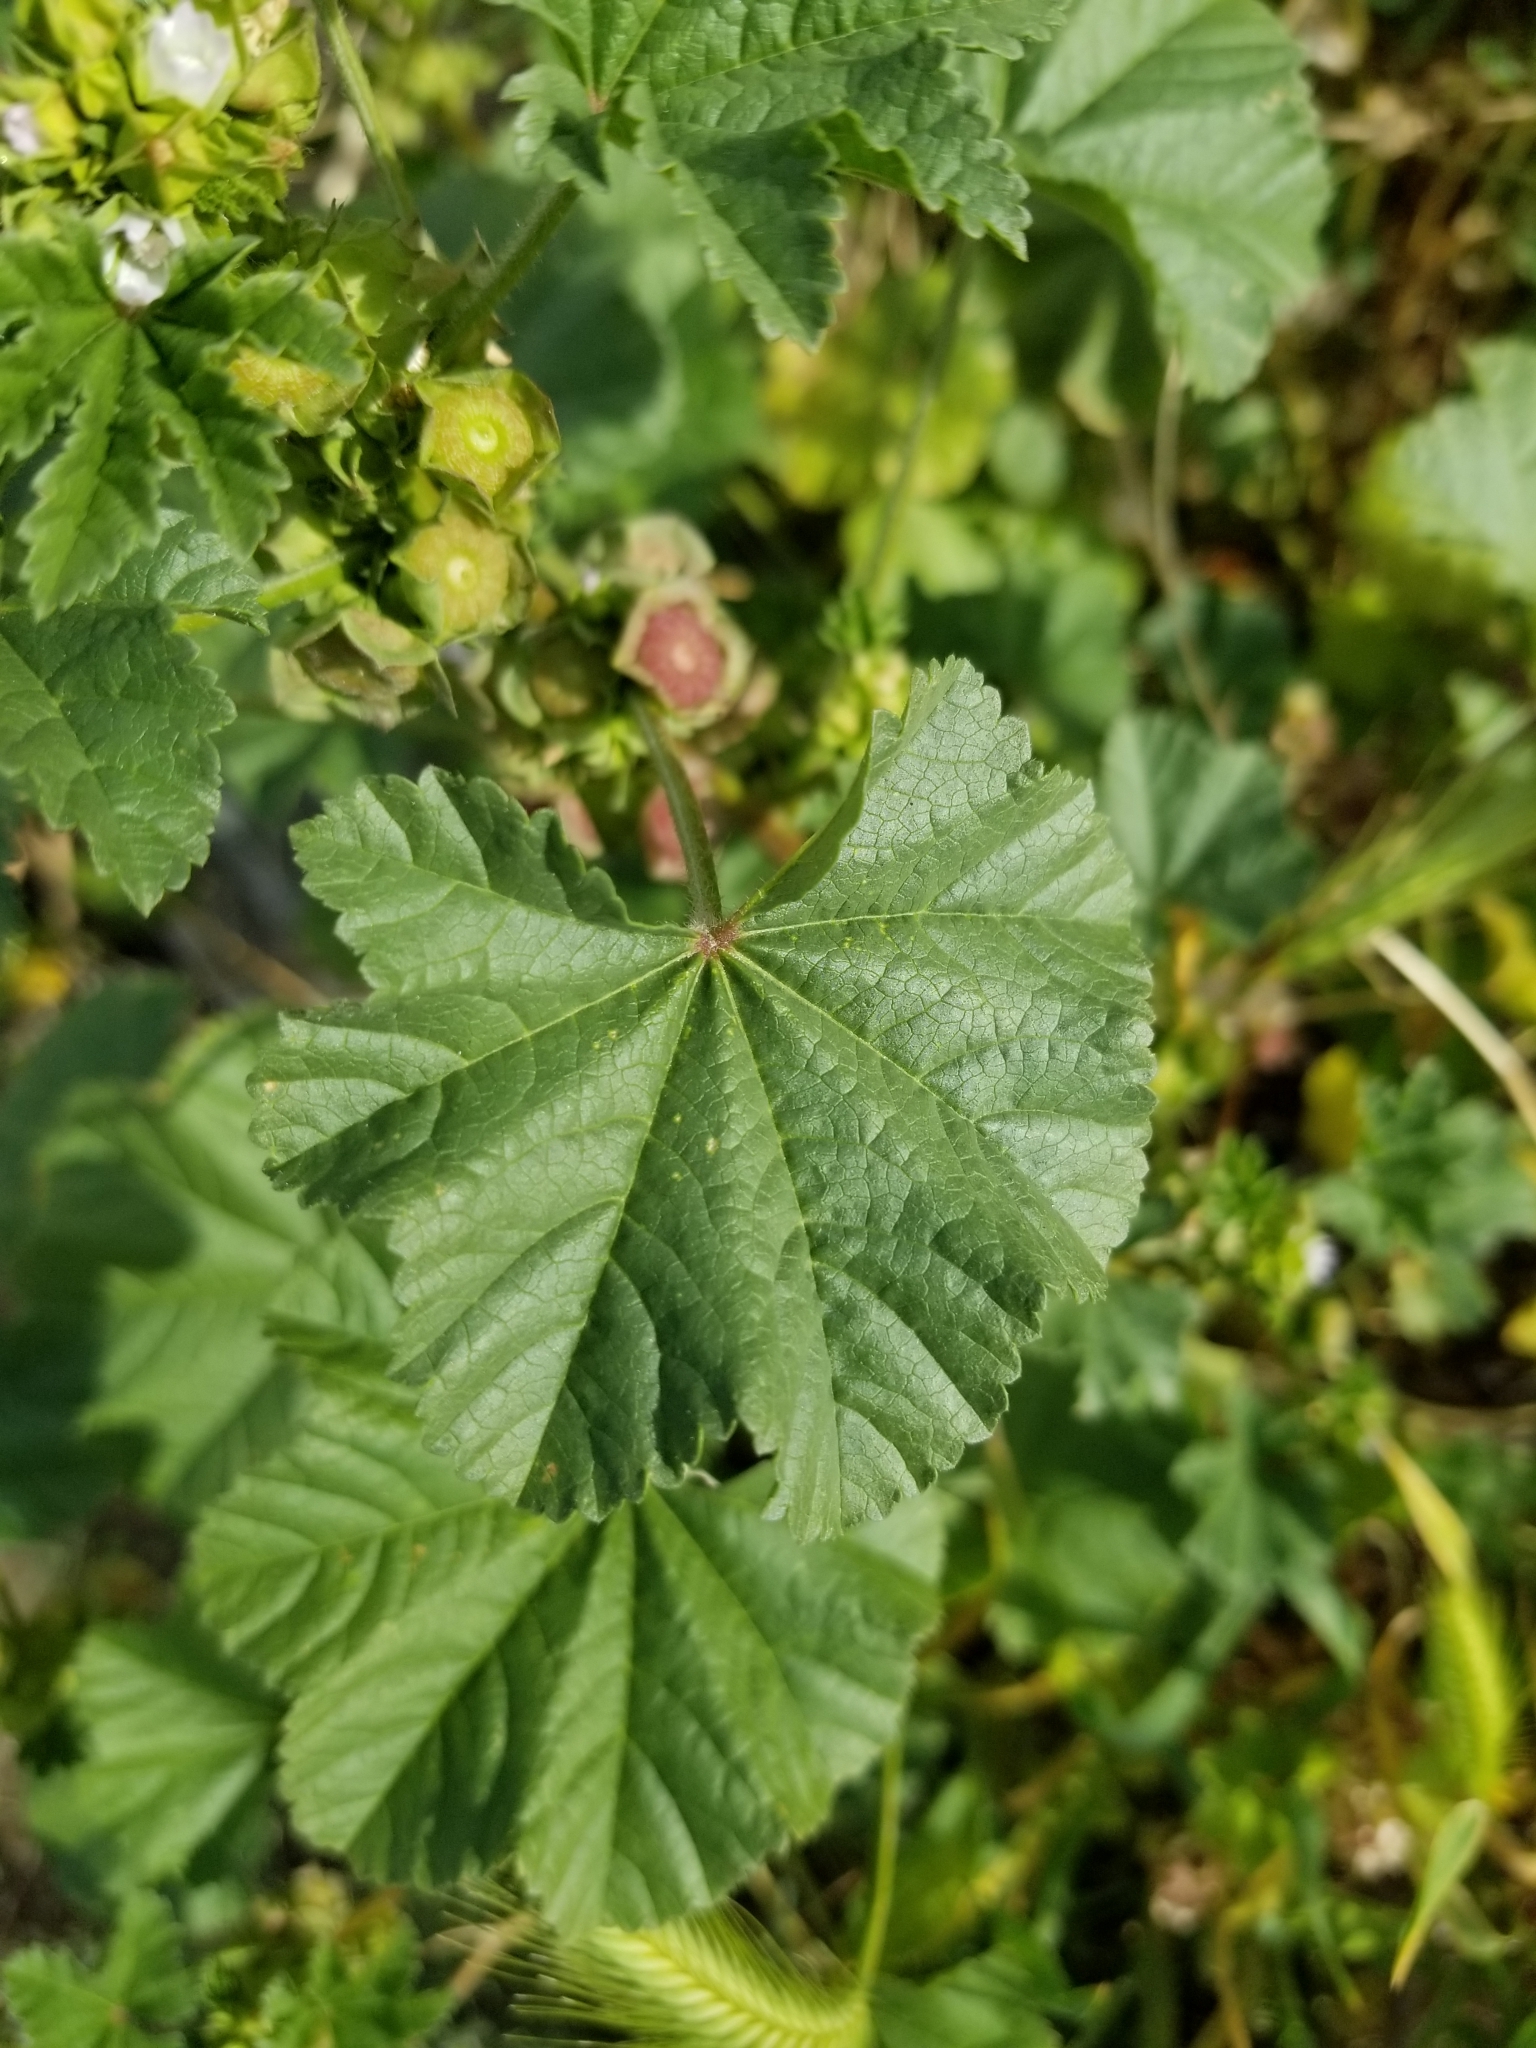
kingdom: Plantae
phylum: Tracheophyta
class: Magnoliopsida
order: Malvales
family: Malvaceae
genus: Malva
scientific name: Malva parviflora
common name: Least mallow
